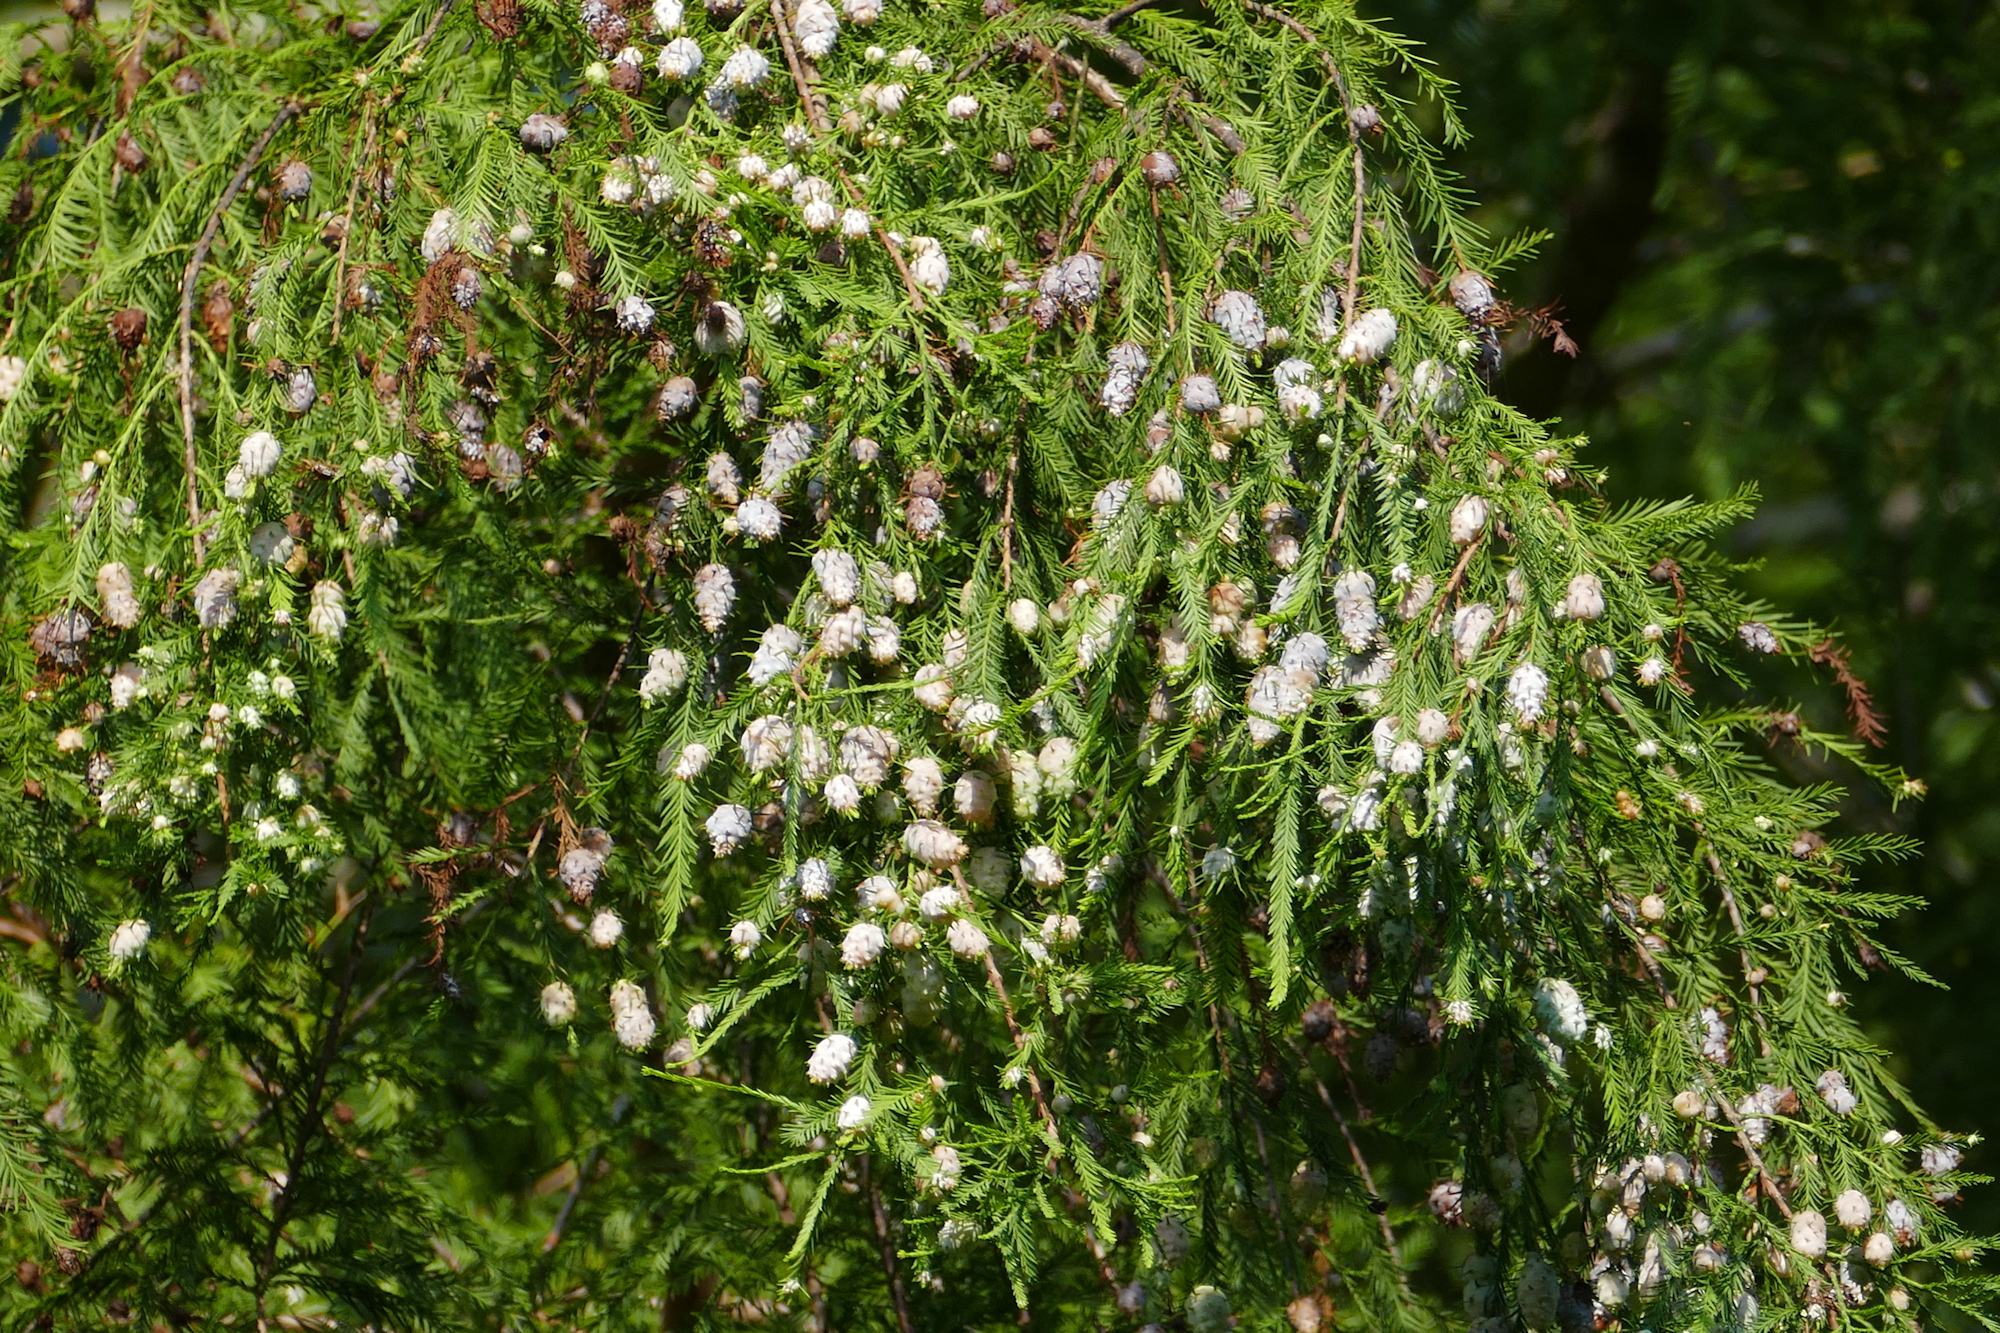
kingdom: Animalia
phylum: Arthropoda
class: Insecta
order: Diptera
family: Cecidomyiidae
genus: Taxodiomyia
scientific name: Taxodiomyia cupressiananassa
